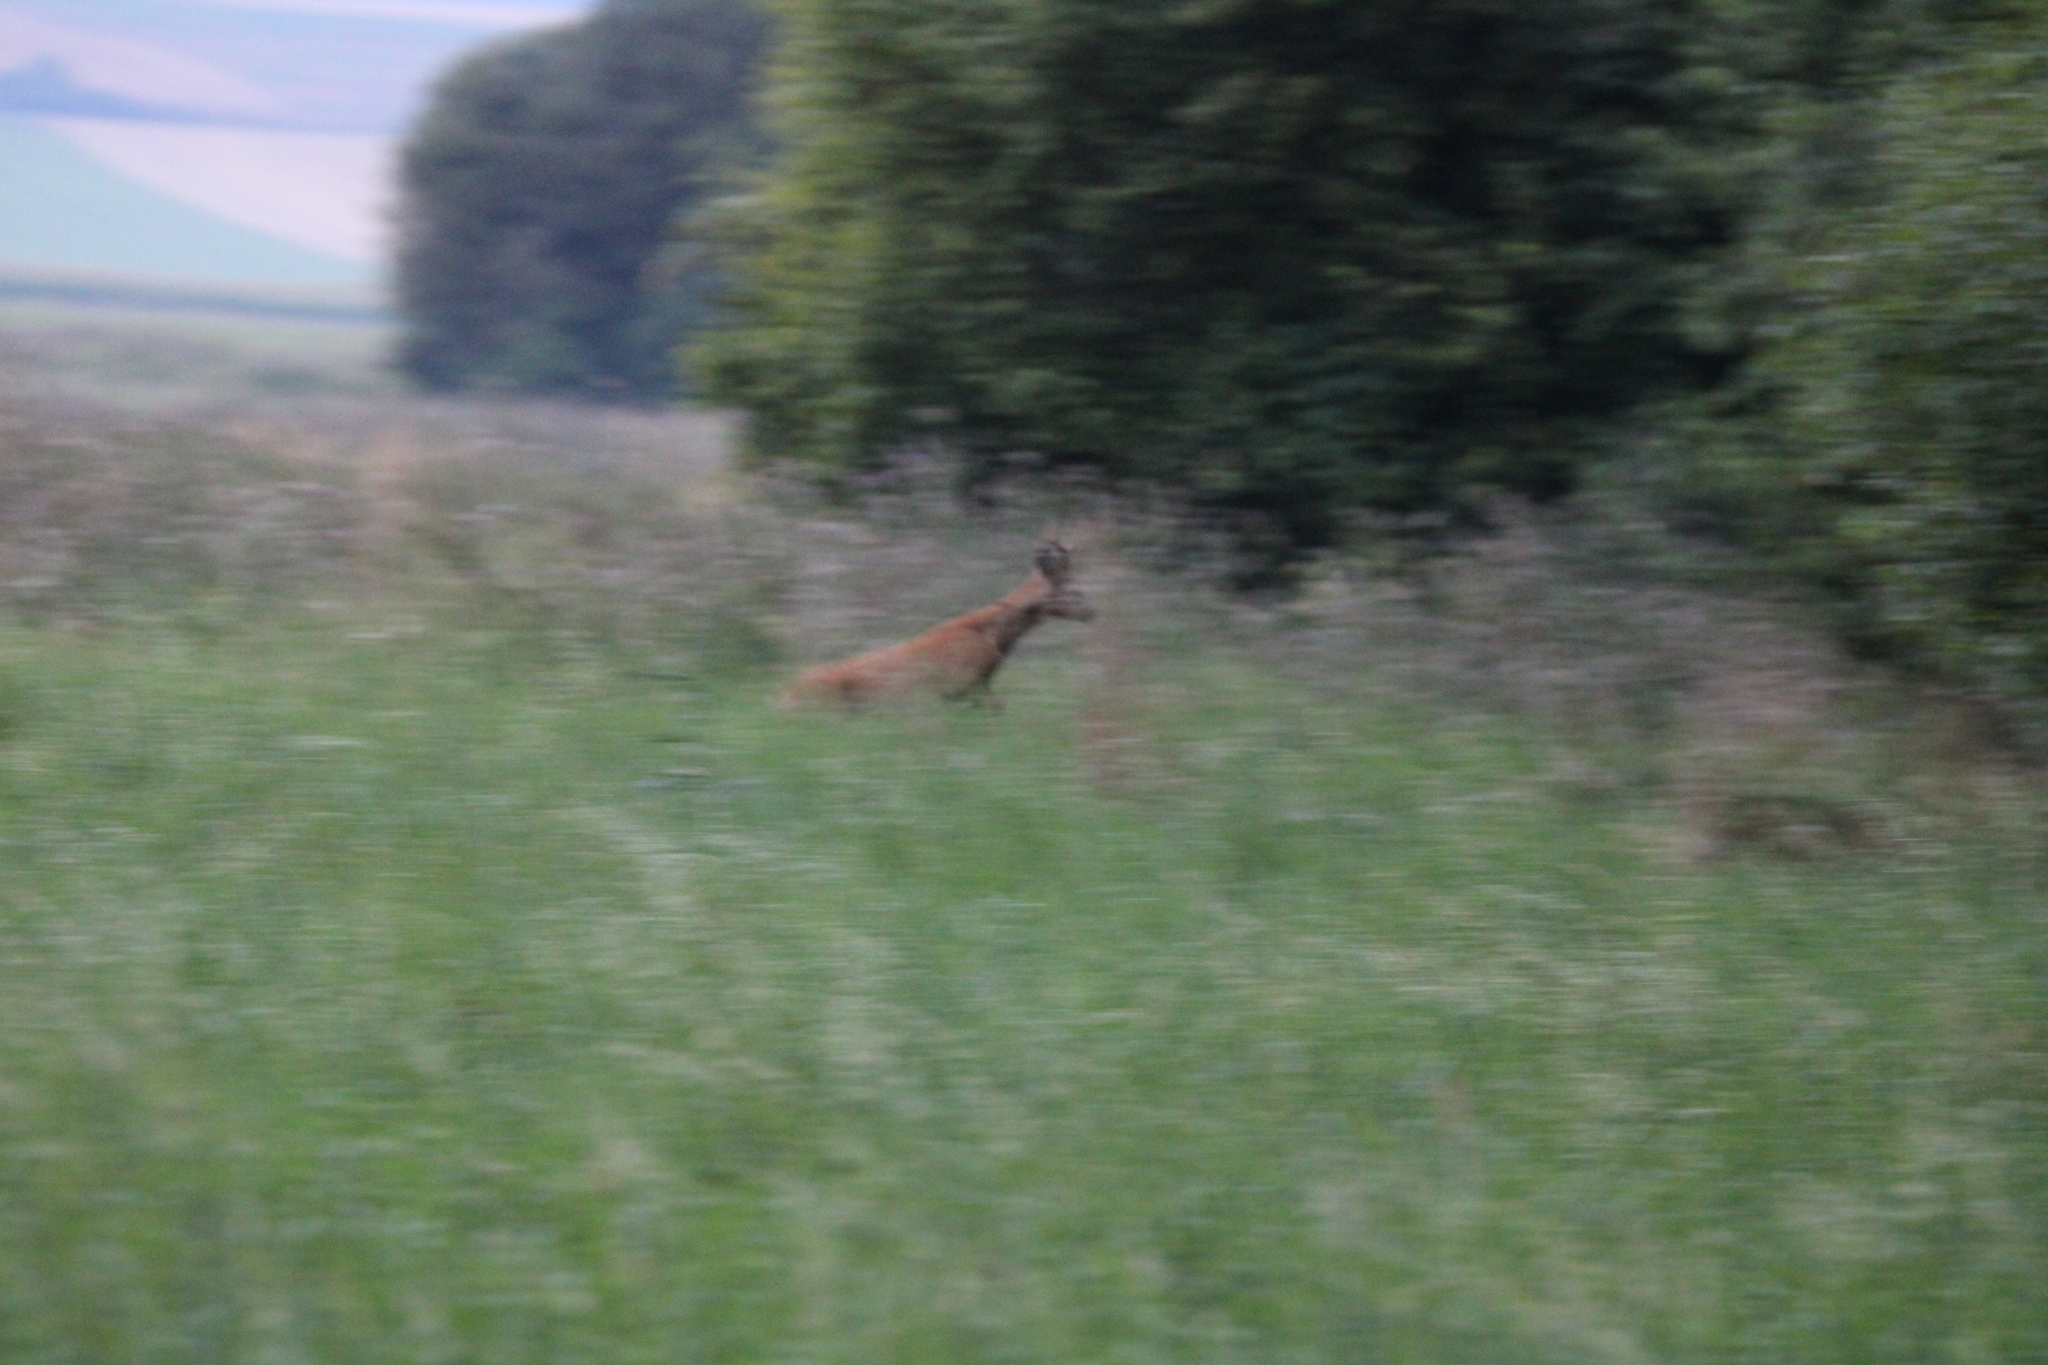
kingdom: Animalia
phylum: Chordata
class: Mammalia
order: Artiodactyla
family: Cervidae
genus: Capreolus
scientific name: Capreolus capreolus
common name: Western roe deer
